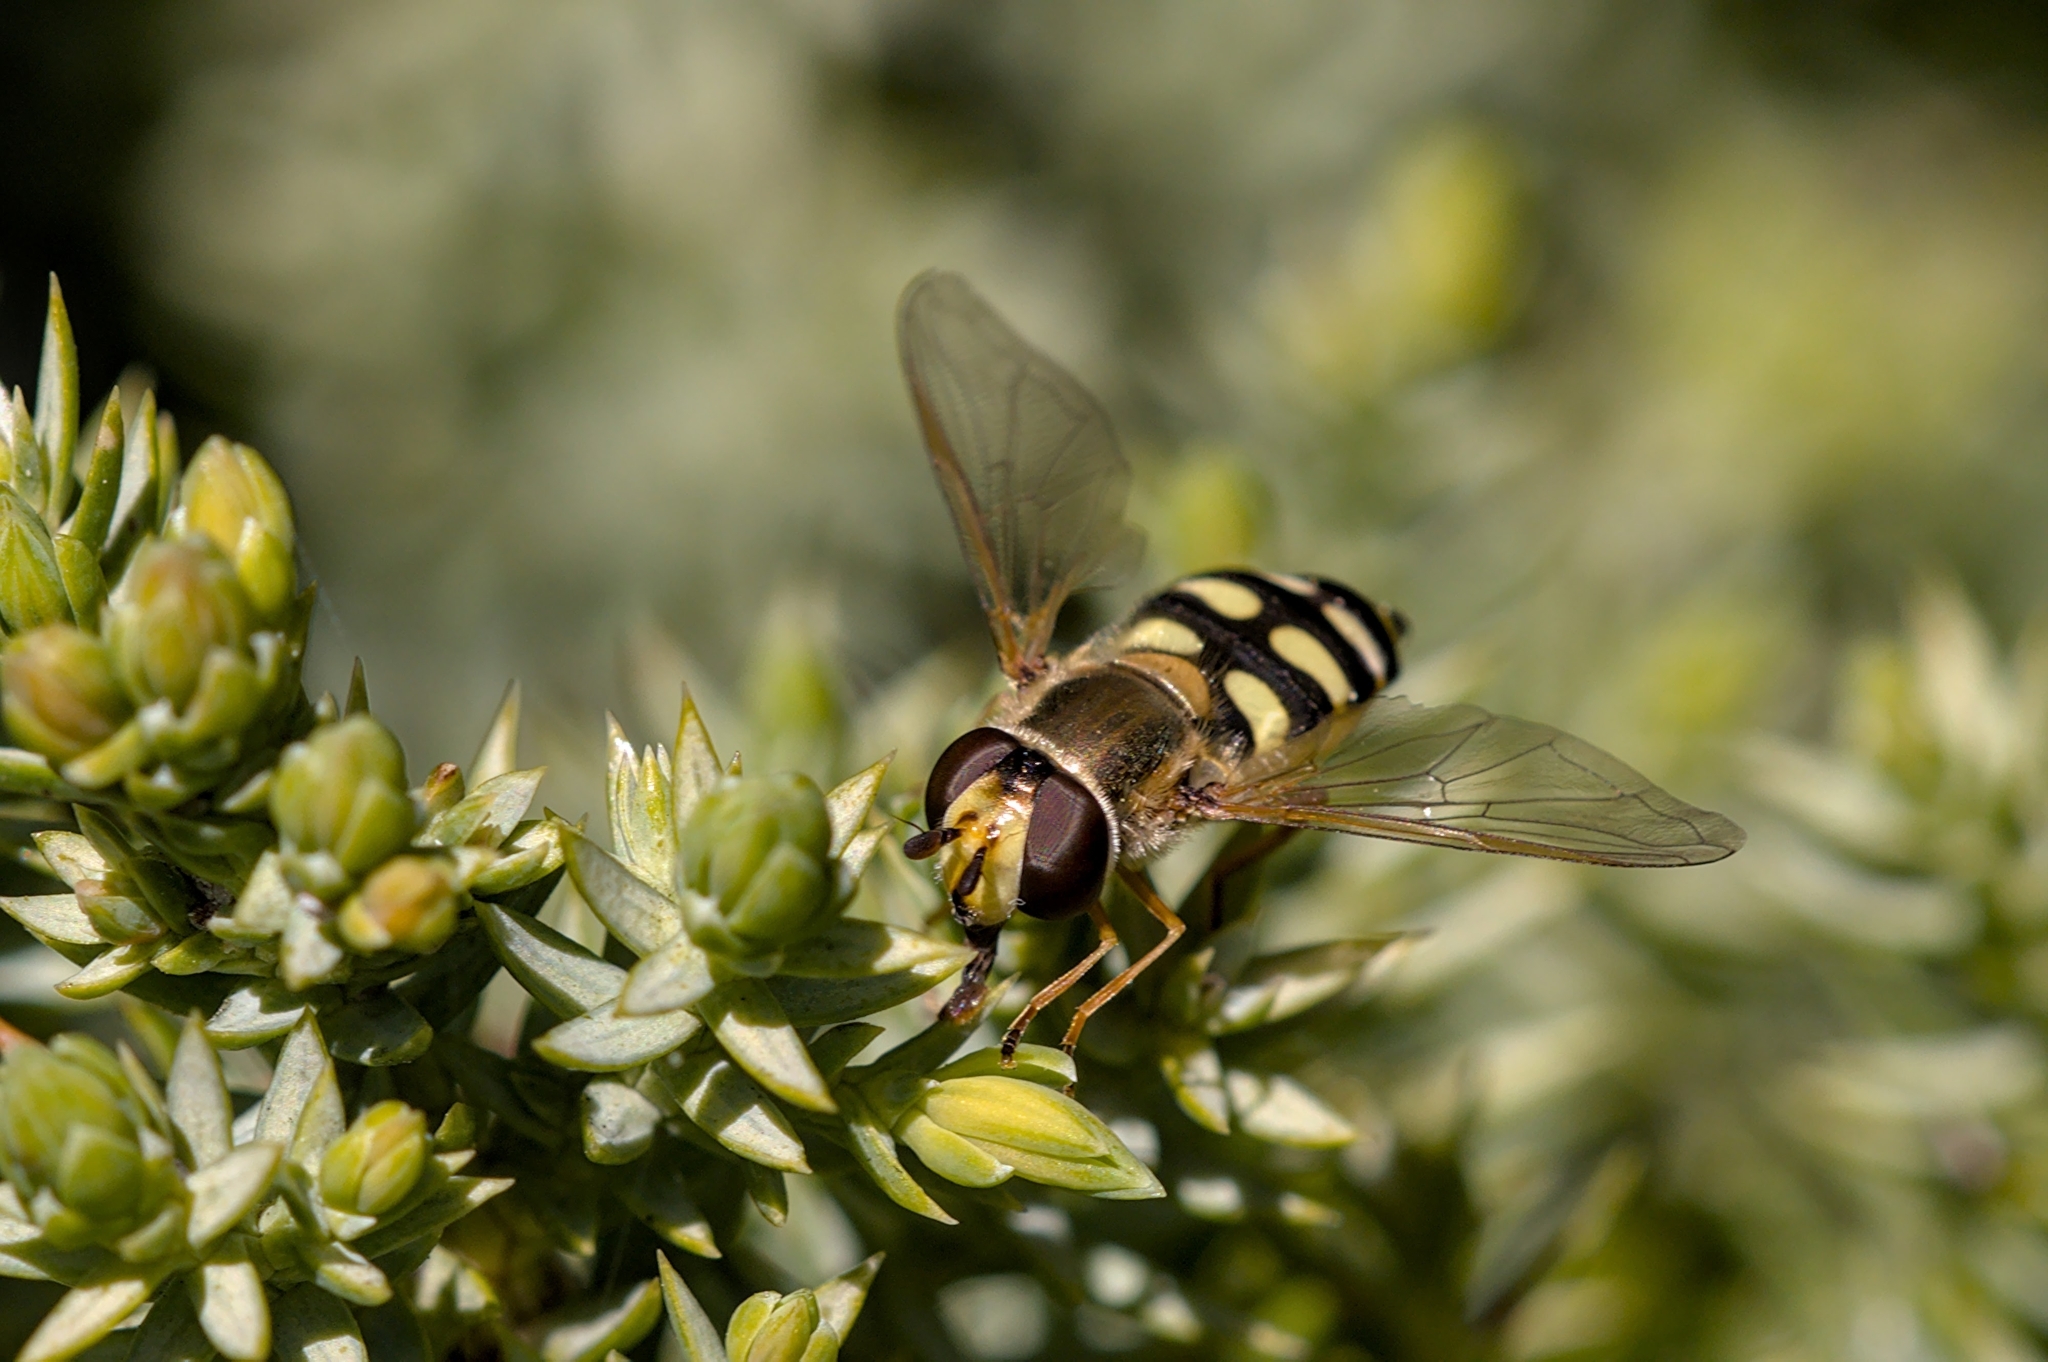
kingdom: Animalia
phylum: Arthropoda
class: Insecta
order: Diptera
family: Syrphidae
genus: Eupeodes
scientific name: Eupeodes corollae
